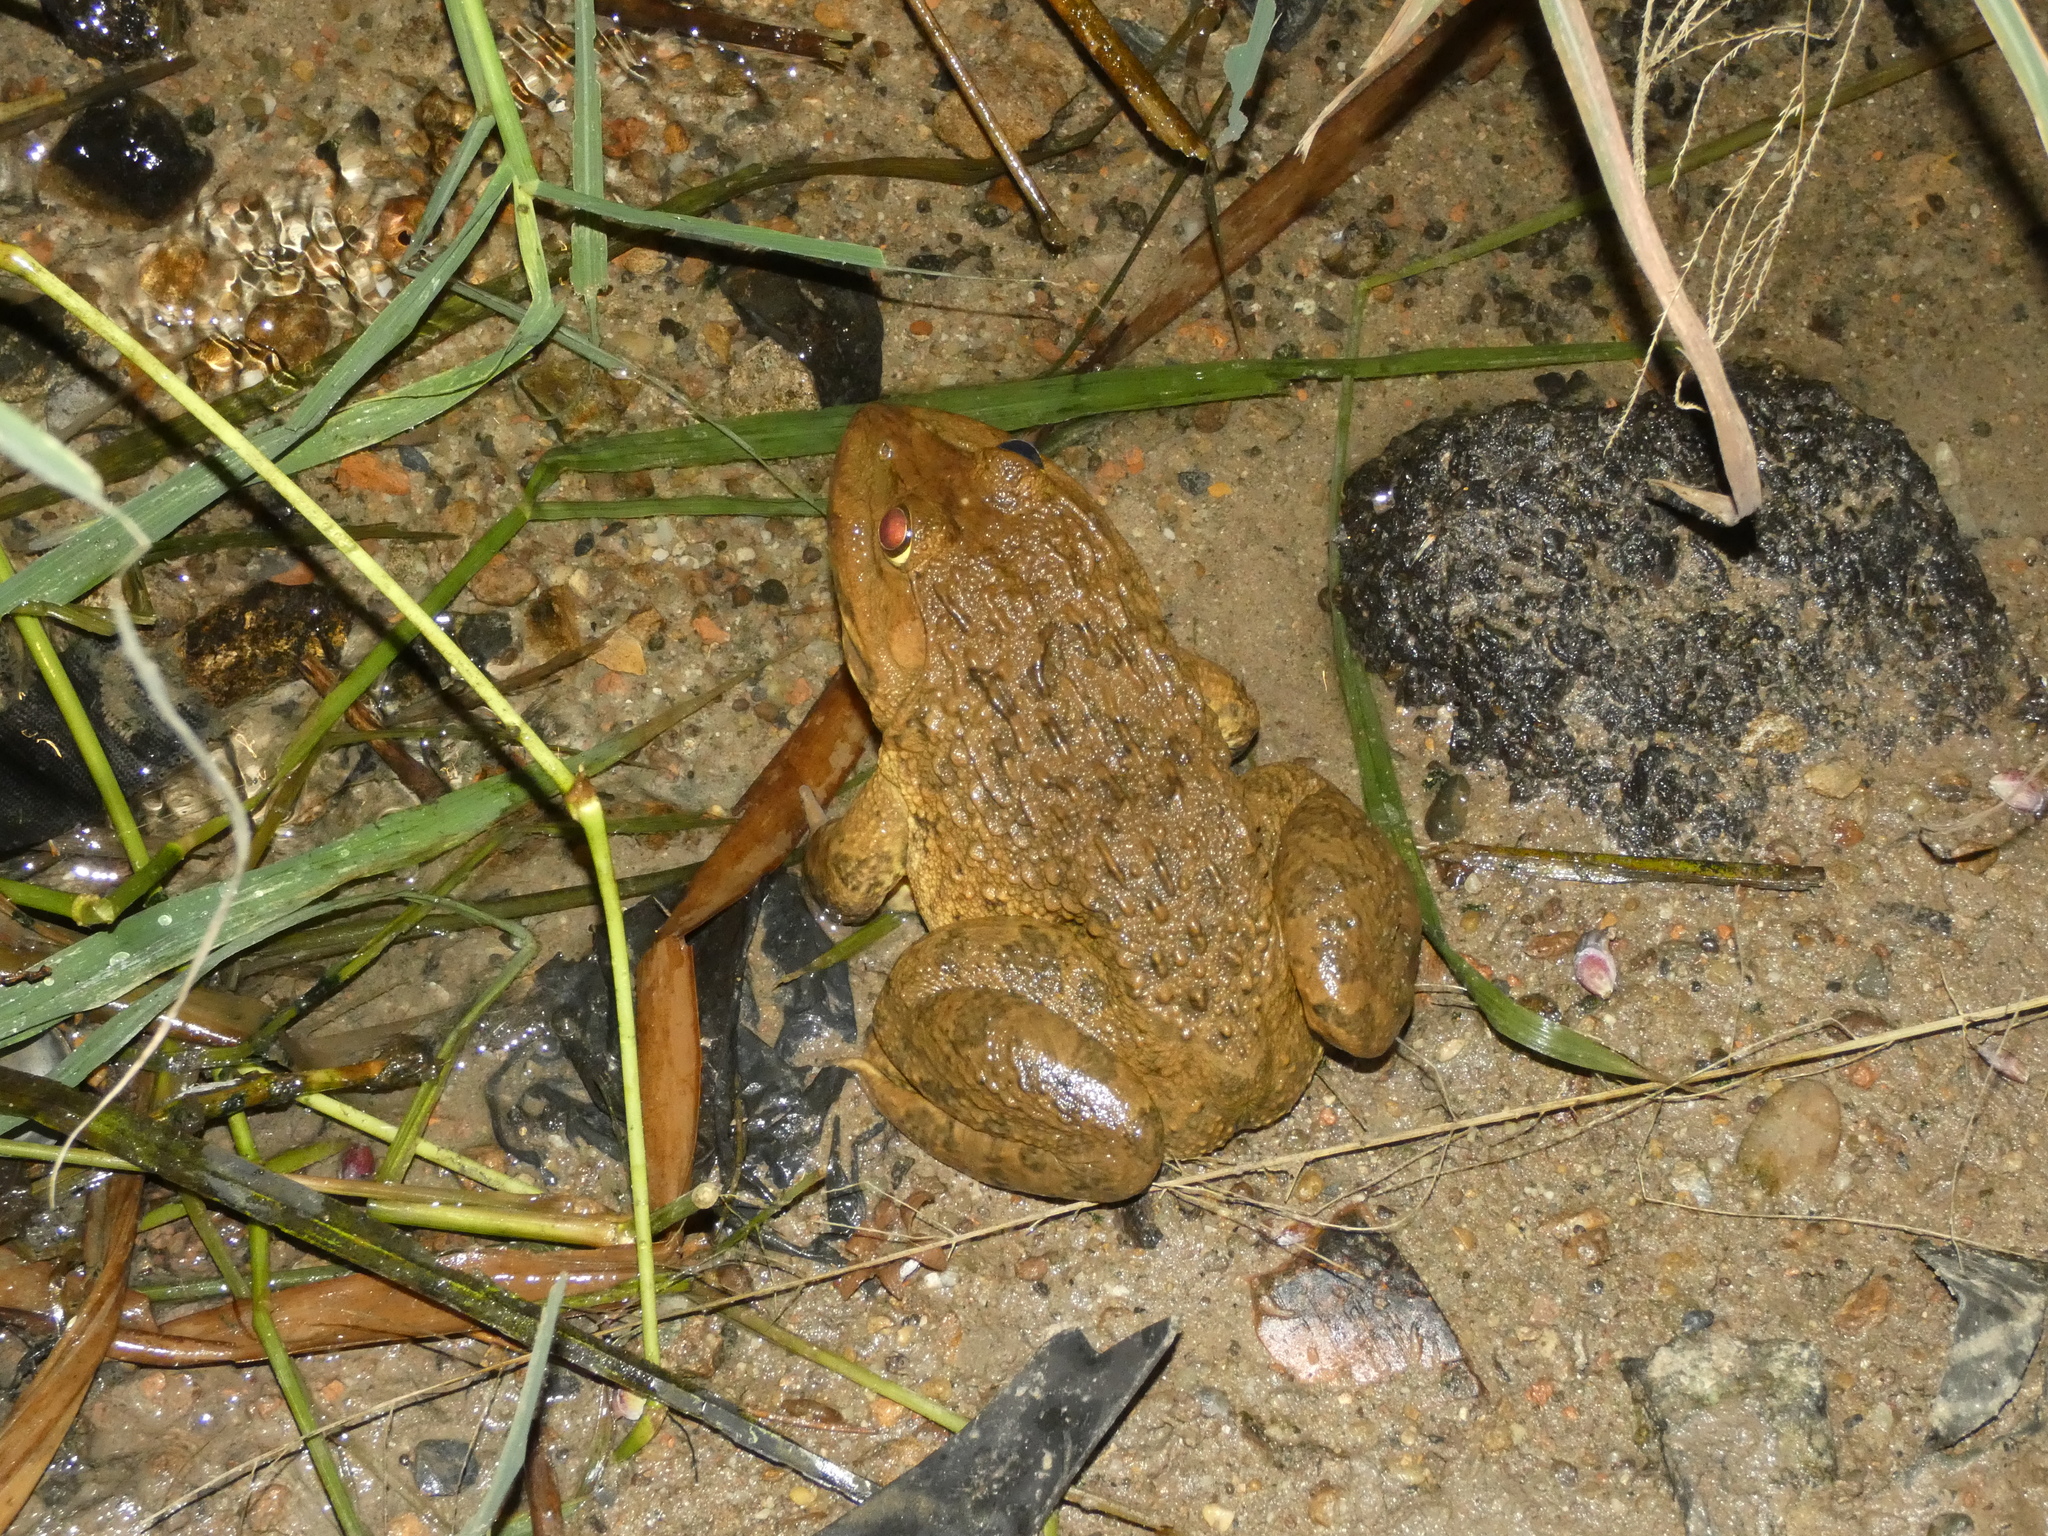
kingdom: Animalia
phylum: Chordata
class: Amphibia
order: Anura
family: Dicroglossidae
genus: Hoplobatrachus
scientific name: Hoplobatrachus rugulosus
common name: Chinese edible frog
